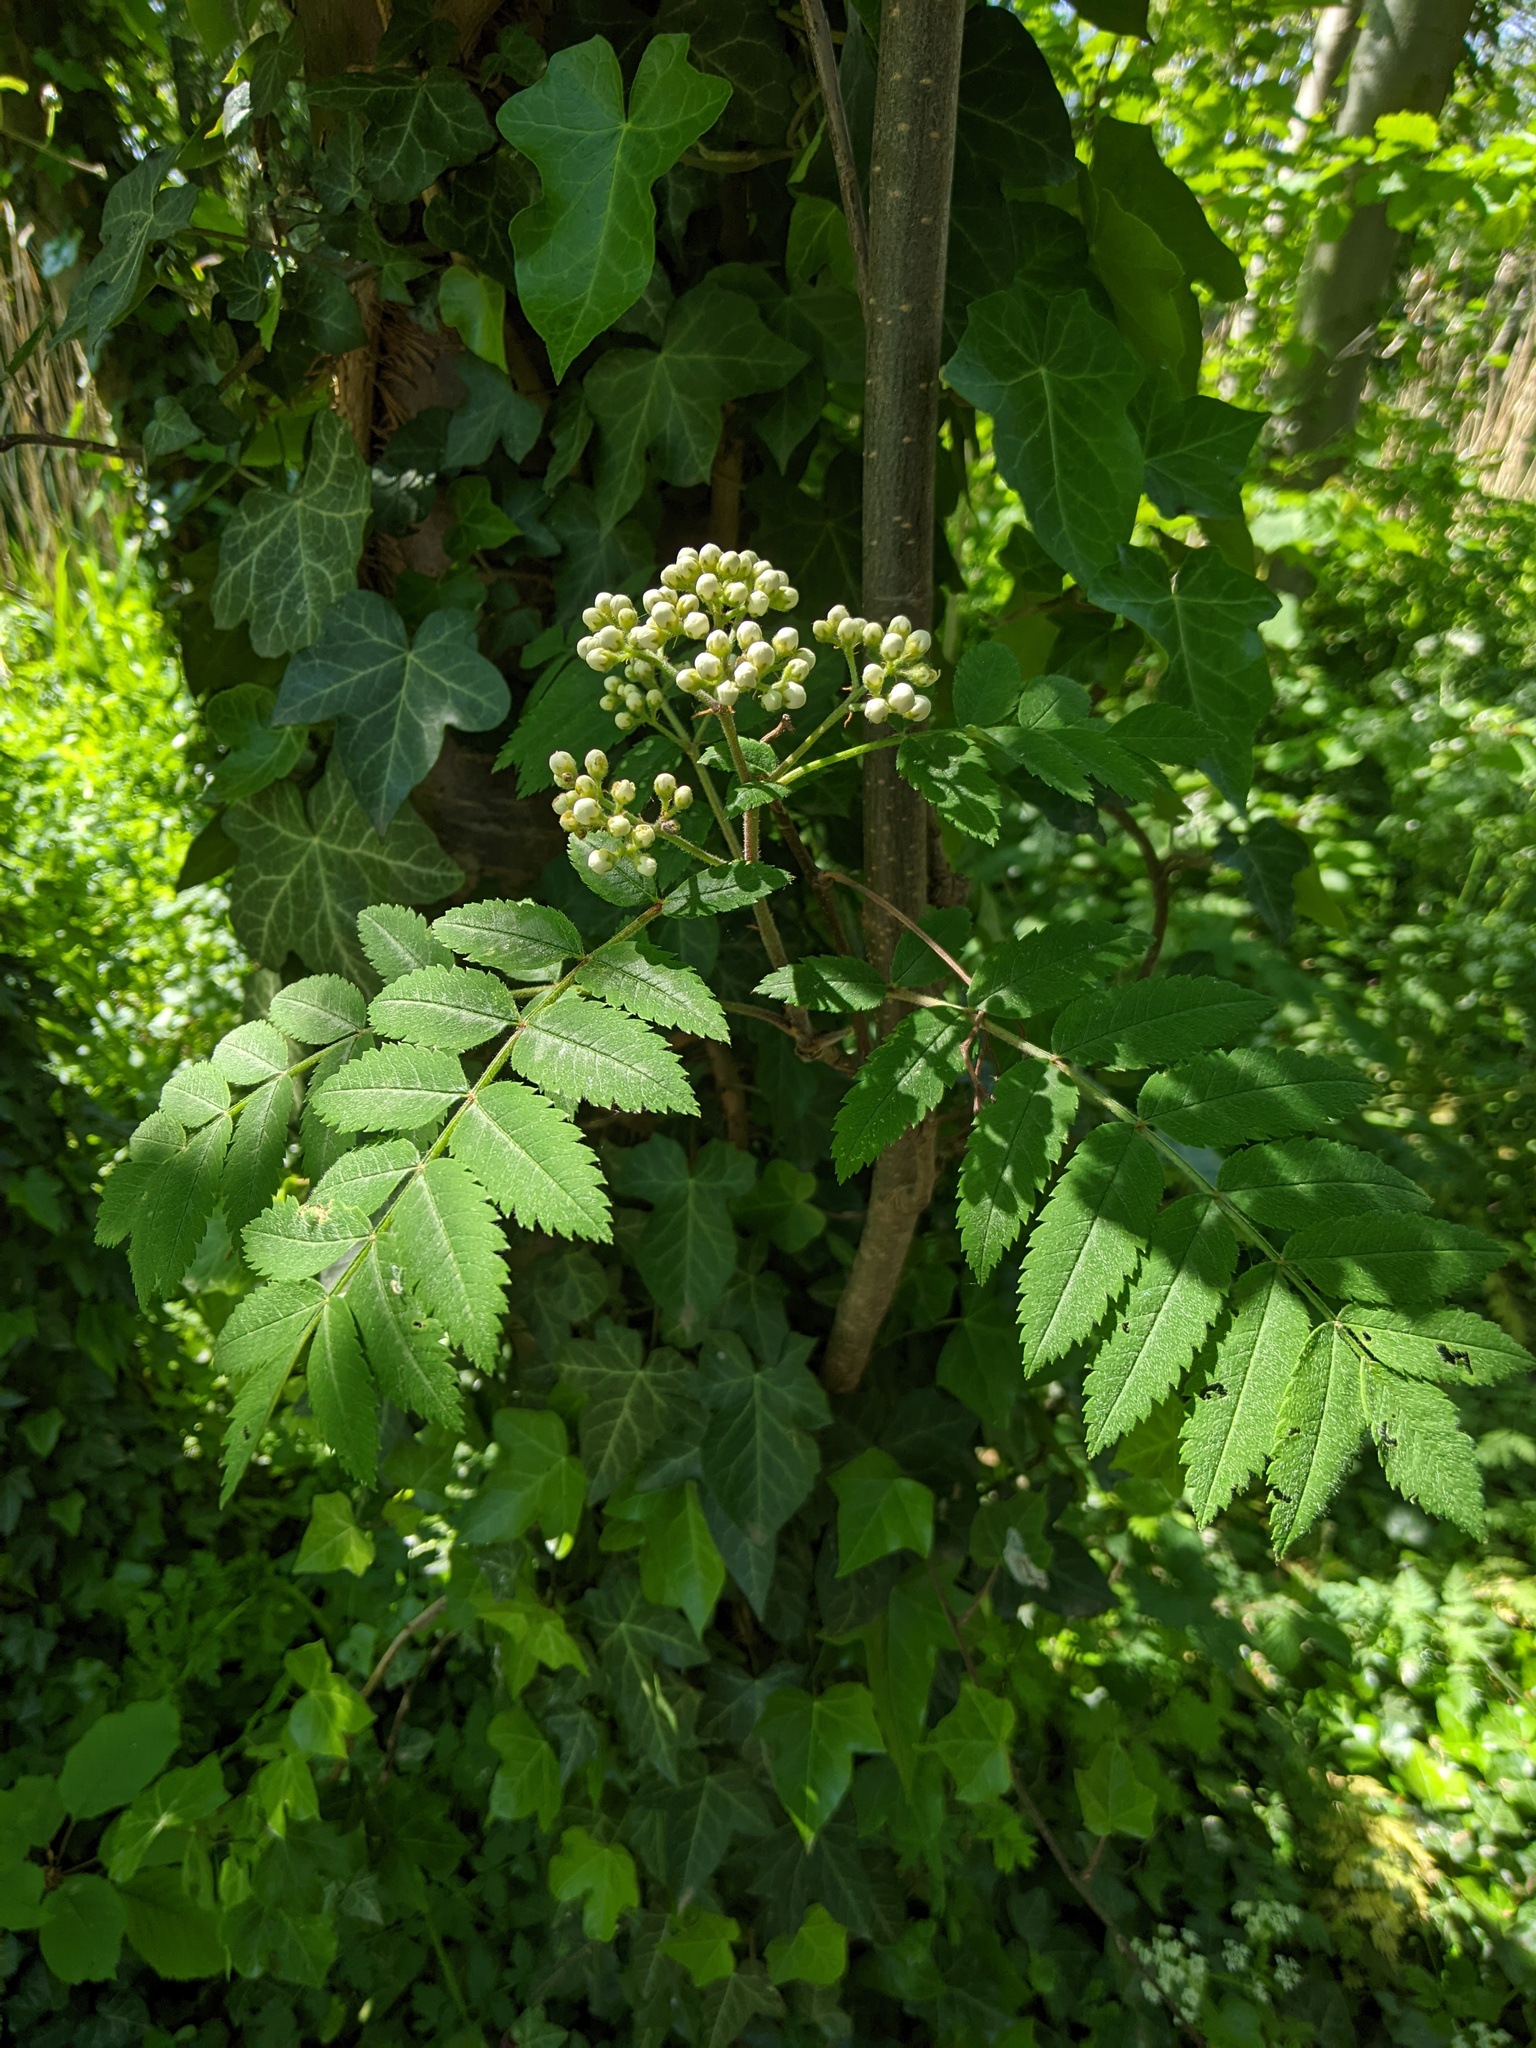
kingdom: Plantae
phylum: Tracheophyta
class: Magnoliopsida
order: Rosales
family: Rosaceae
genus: Sorbus
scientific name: Sorbus aucuparia
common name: Rowan
